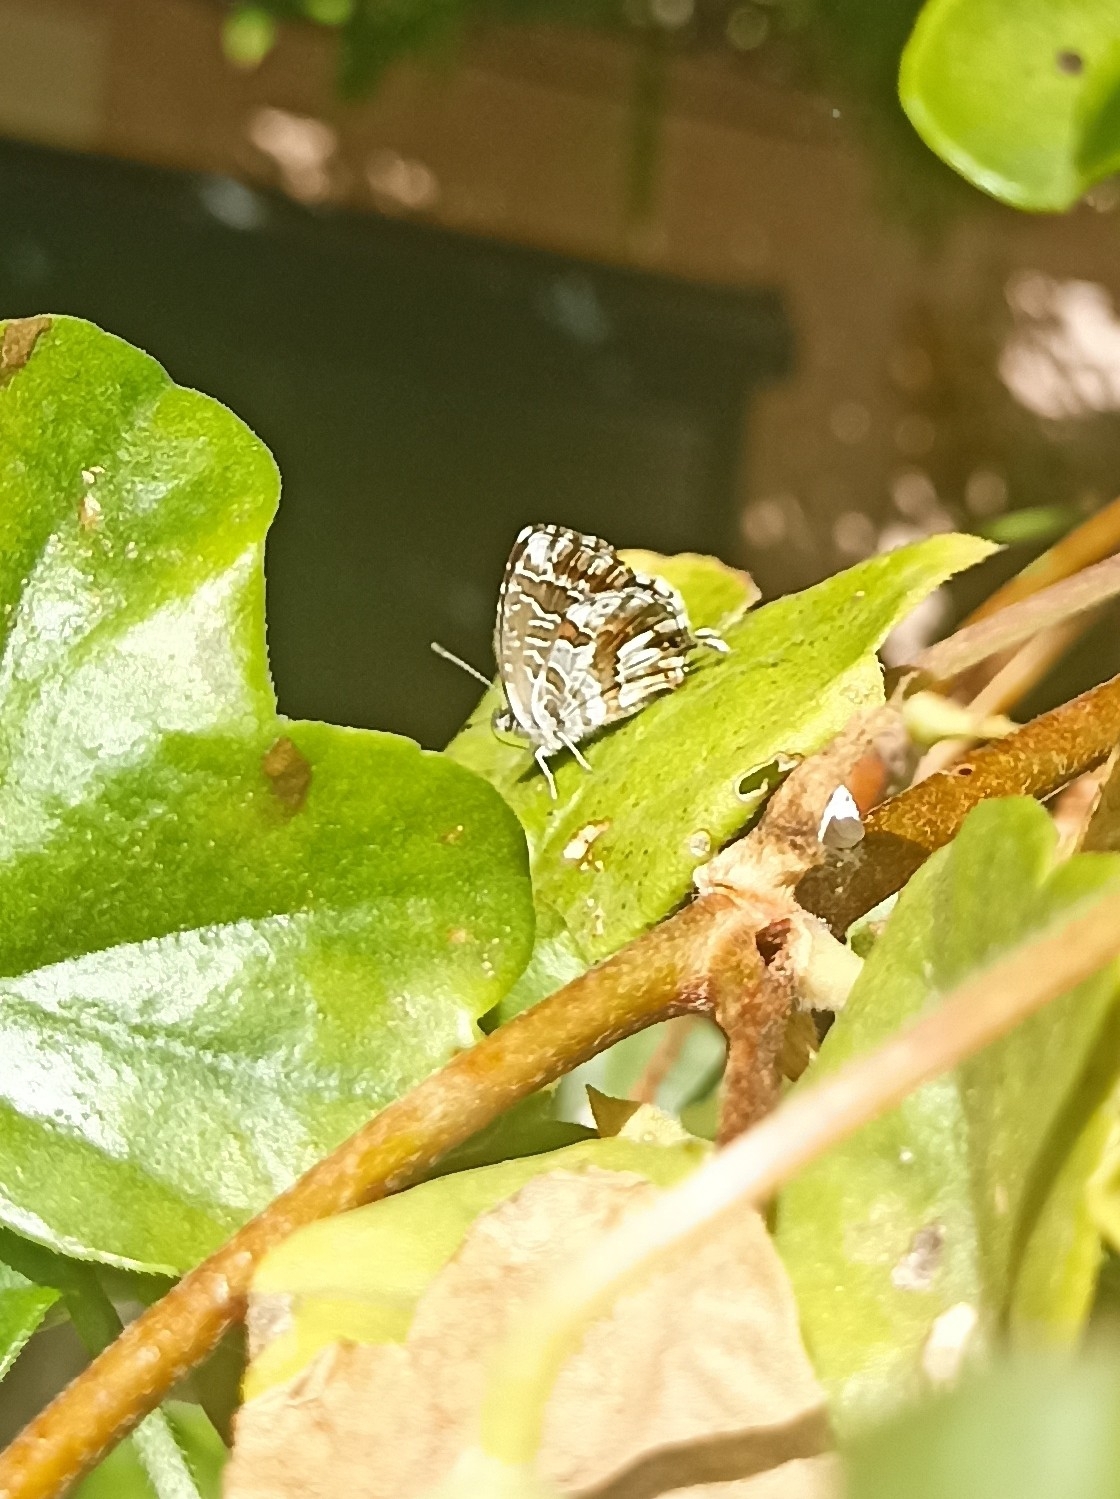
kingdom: Animalia
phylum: Arthropoda
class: Insecta
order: Lepidoptera
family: Lycaenidae
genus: Cacyreus
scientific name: Cacyreus marshalli
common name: Geranium bronze
